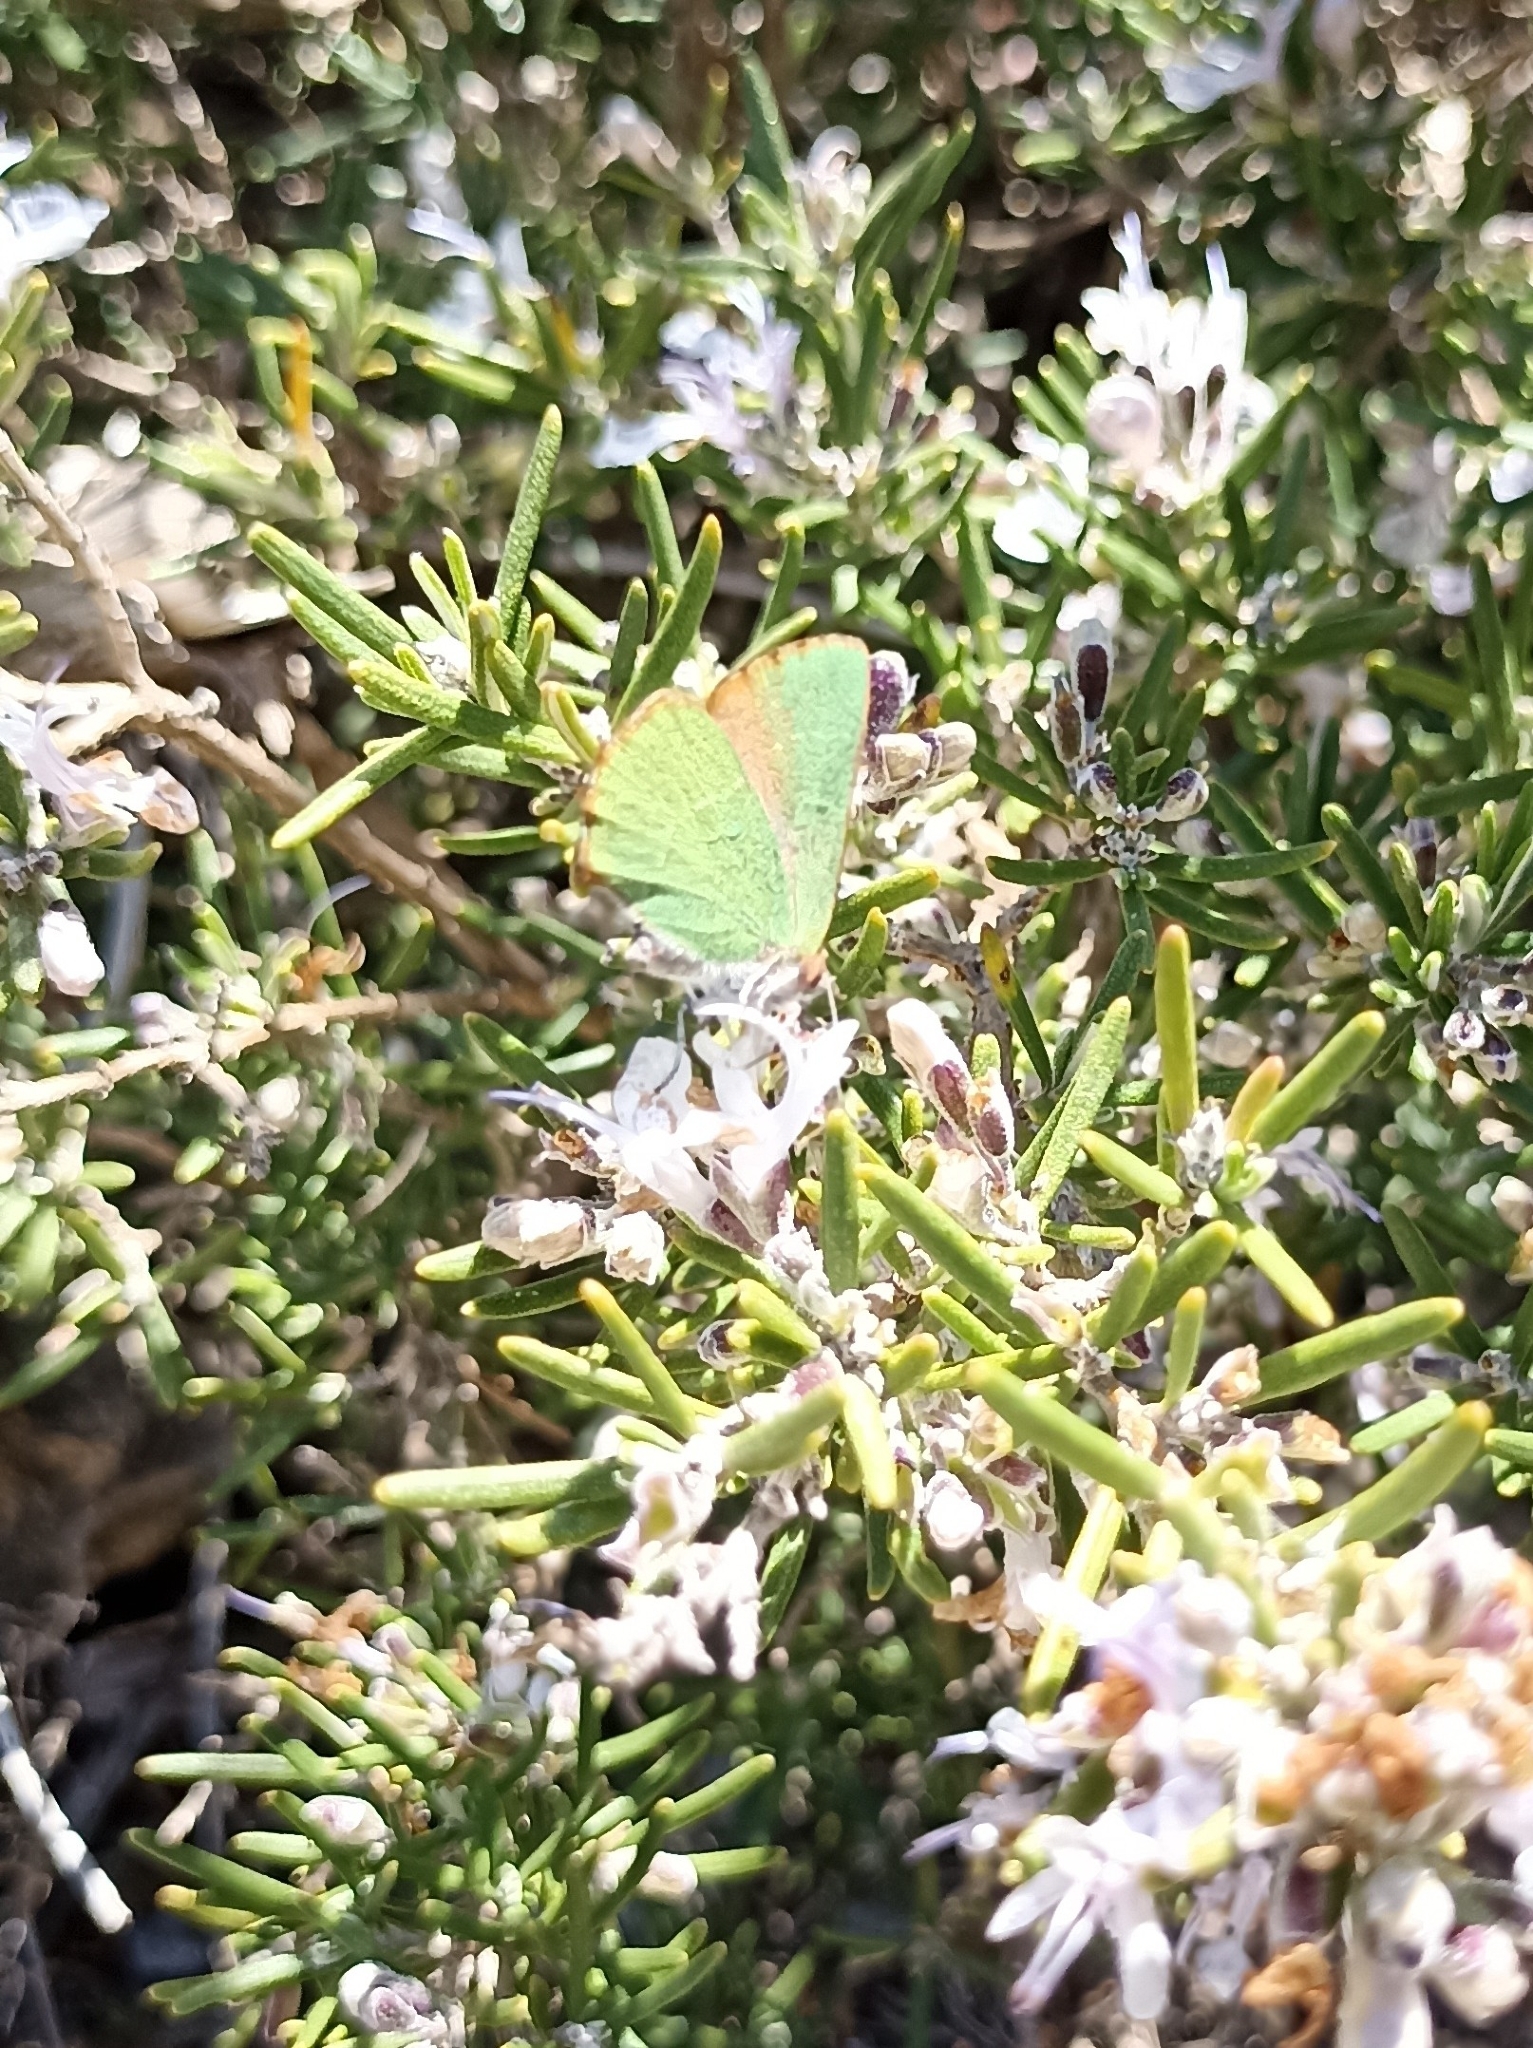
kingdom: Animalia
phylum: Arthropoda
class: Insecta
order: Lepidoptera
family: Lycaenidae
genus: Callophrys
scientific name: Callophrys avis
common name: Chapman's green hairstreak
